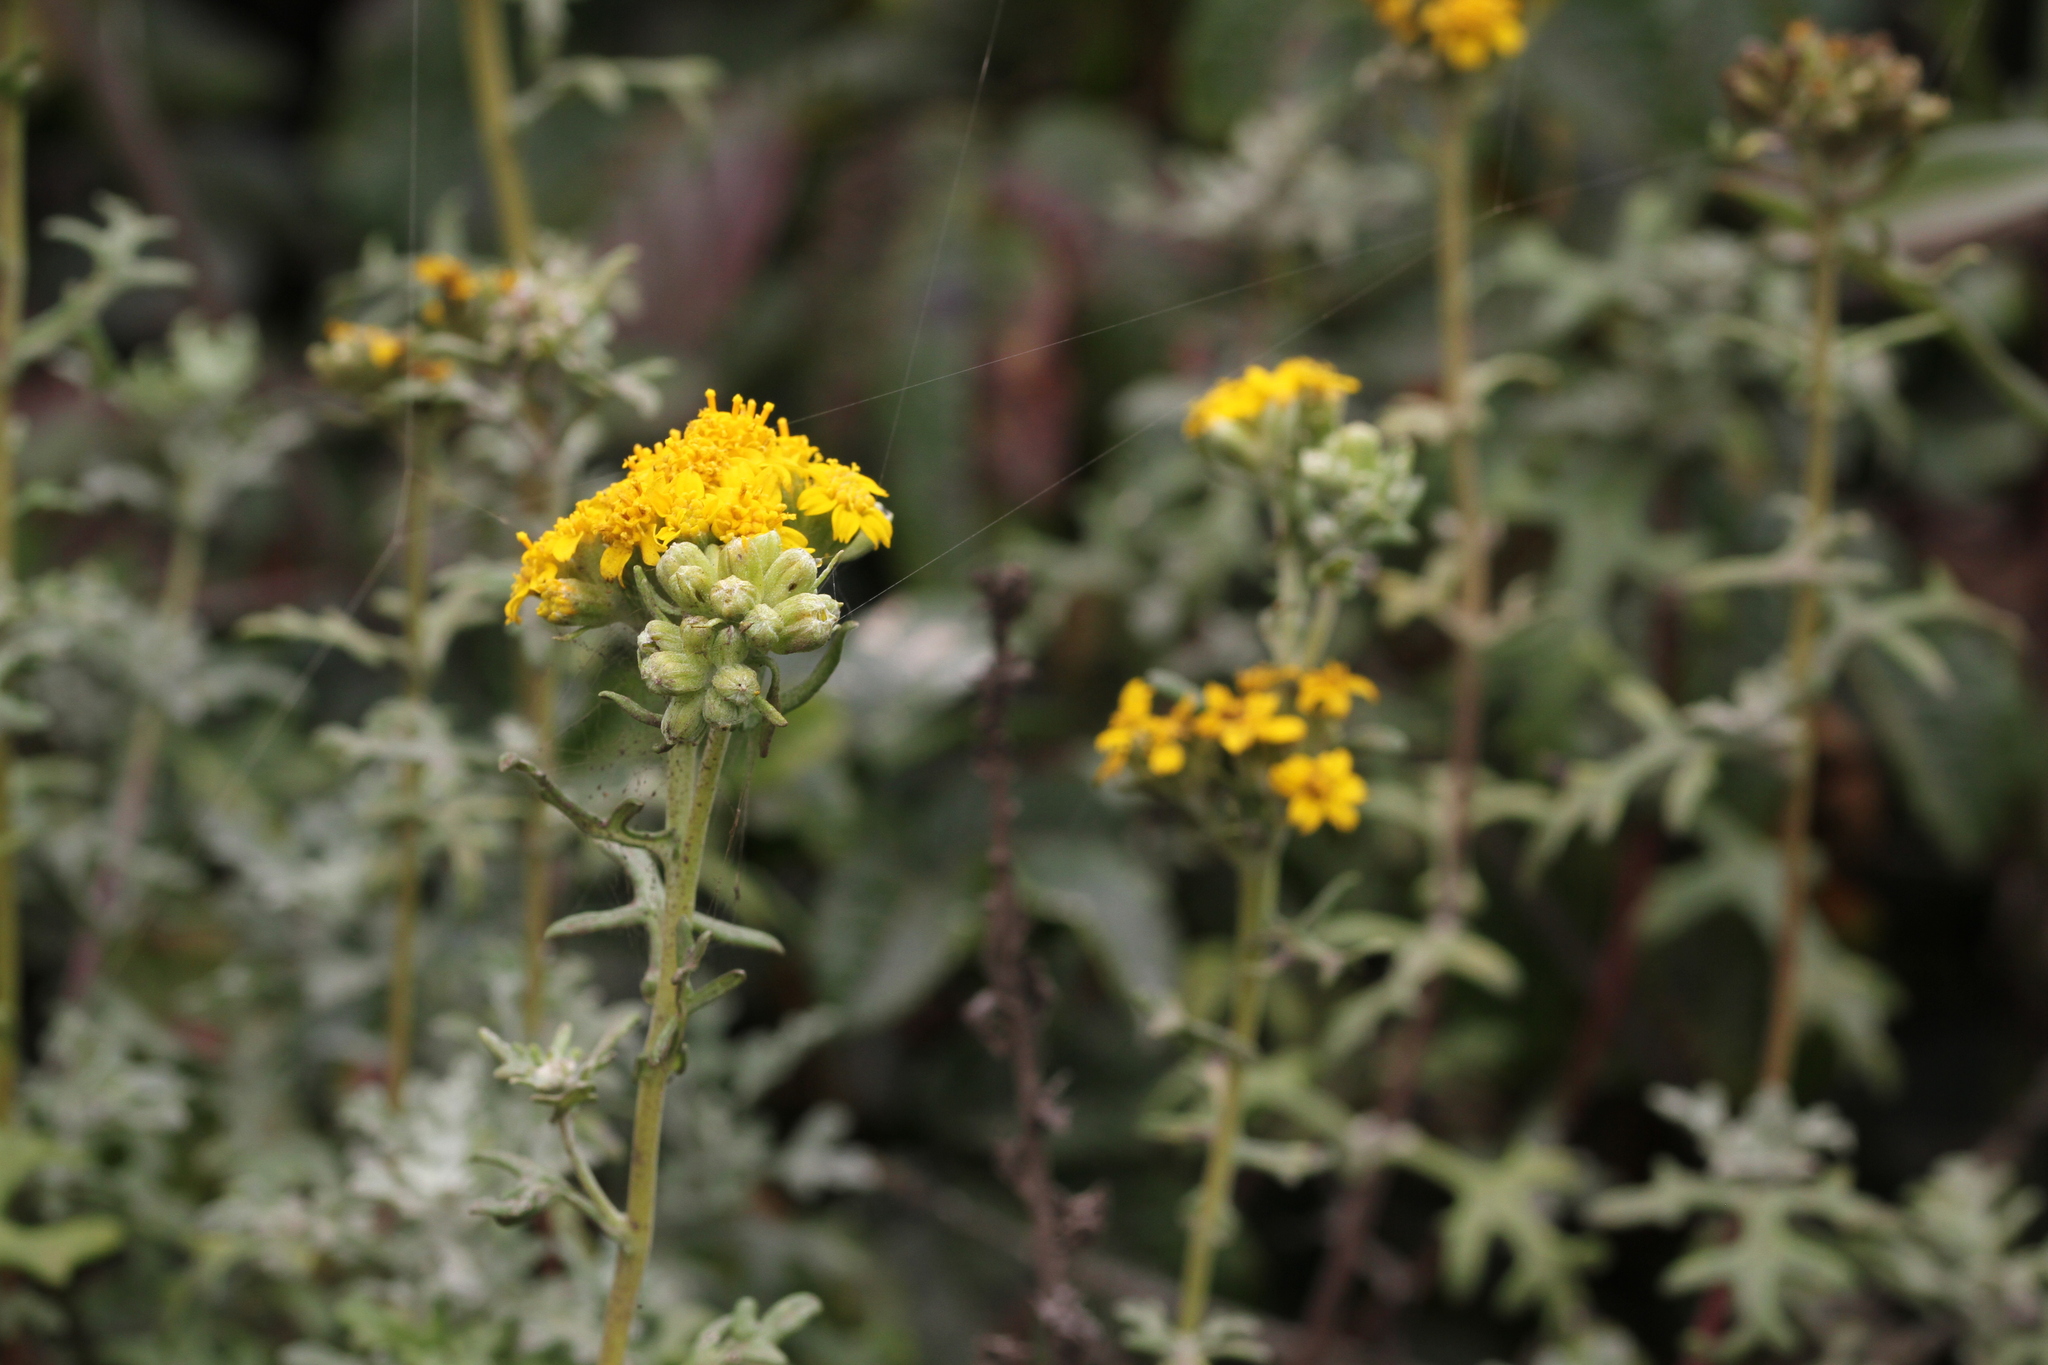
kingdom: Plantae
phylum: Tracheophyta
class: Magnoliopsida
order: Asterales
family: Asteraceae
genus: Eriophyllum
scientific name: Eriophyllum staechadifolium
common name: Lizardtail
